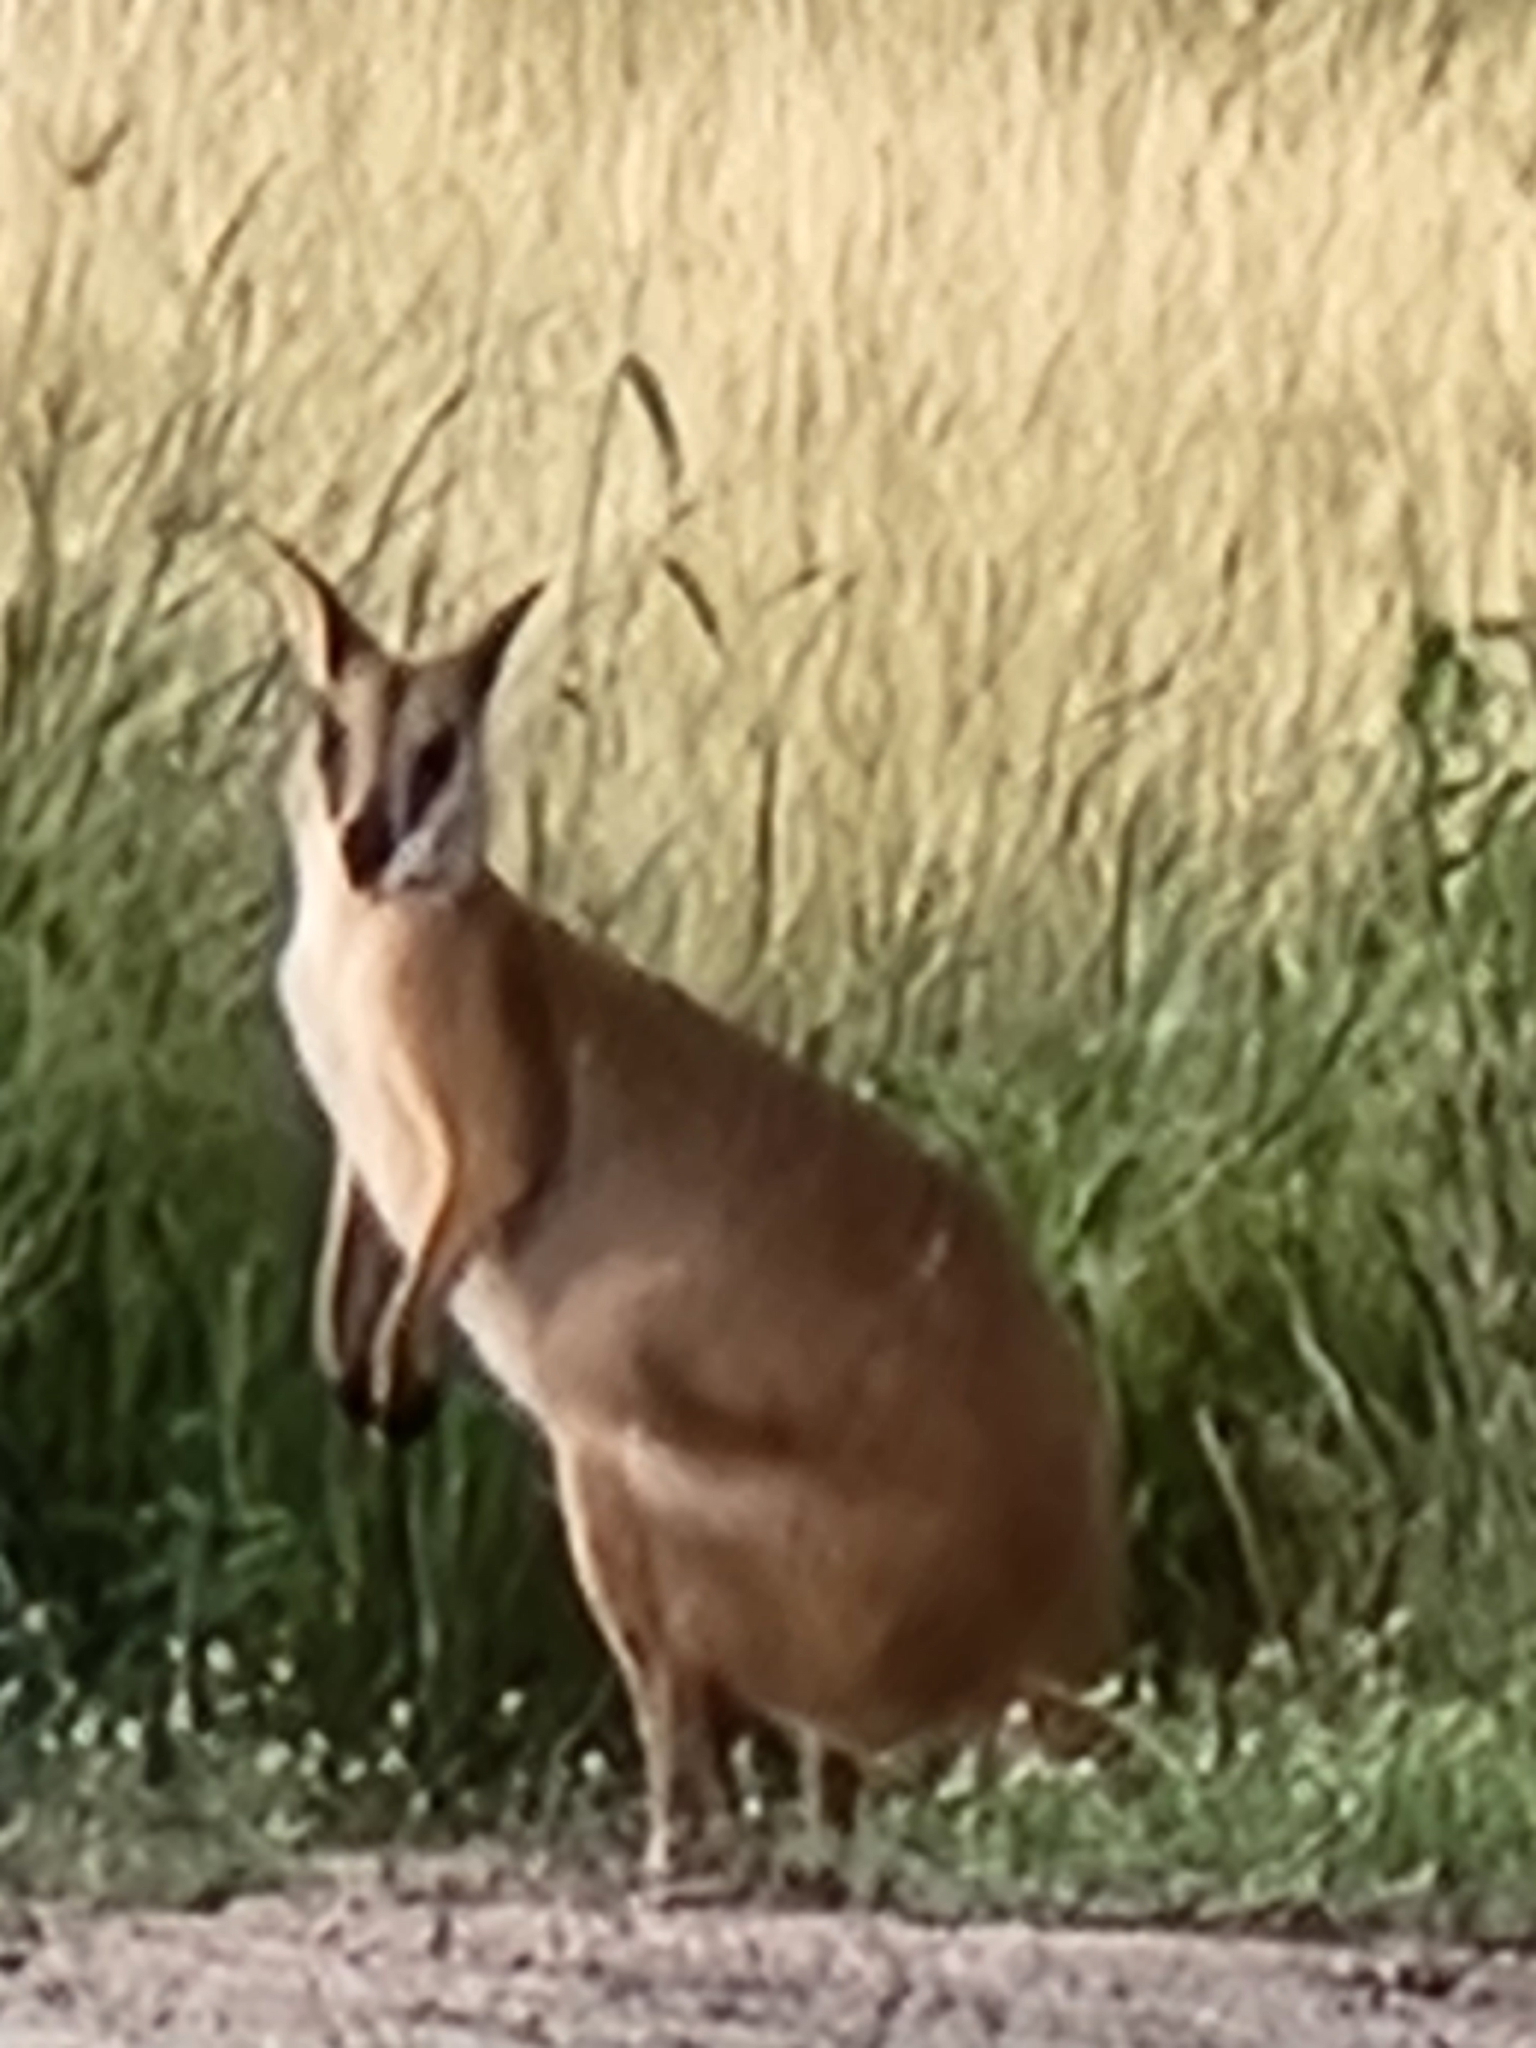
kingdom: Animalia
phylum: Chordata
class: Mammalia
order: Diprotodontia
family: Macropodidae
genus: Macropus
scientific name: Macropus agilis
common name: Agile wallaby
